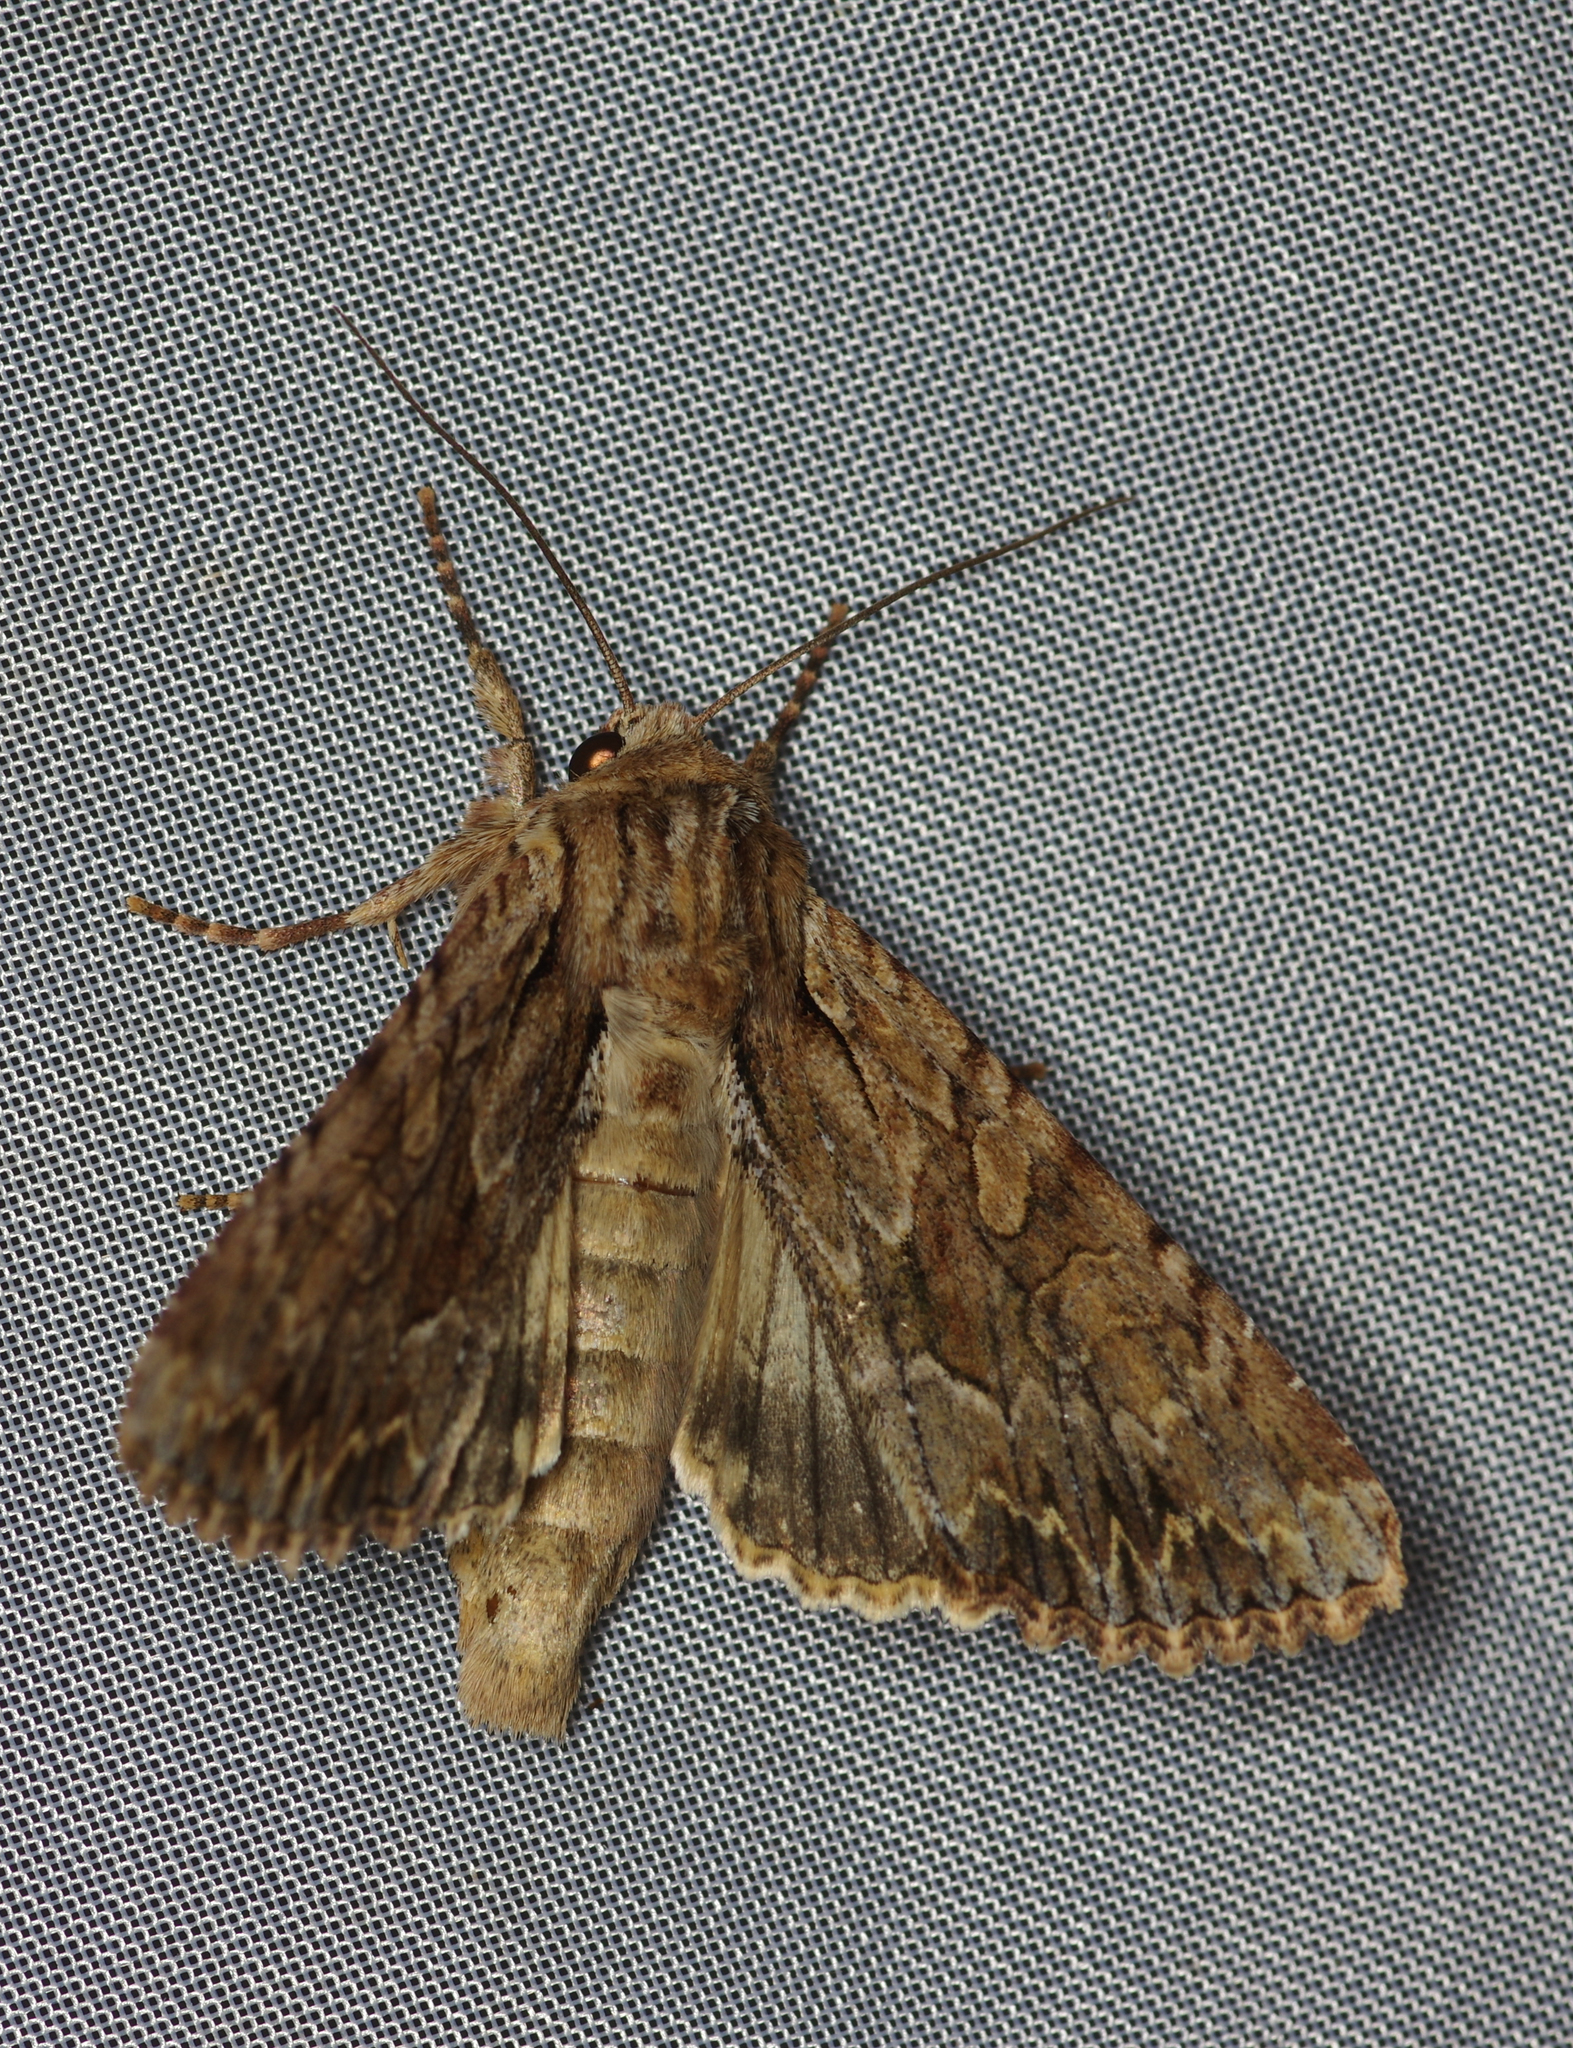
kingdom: Animalia
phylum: Arthropoda
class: Insecta
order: Lepidoptera
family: Noctuidae
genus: Apamea
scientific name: Apamea monoglypha
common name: Dark arches
